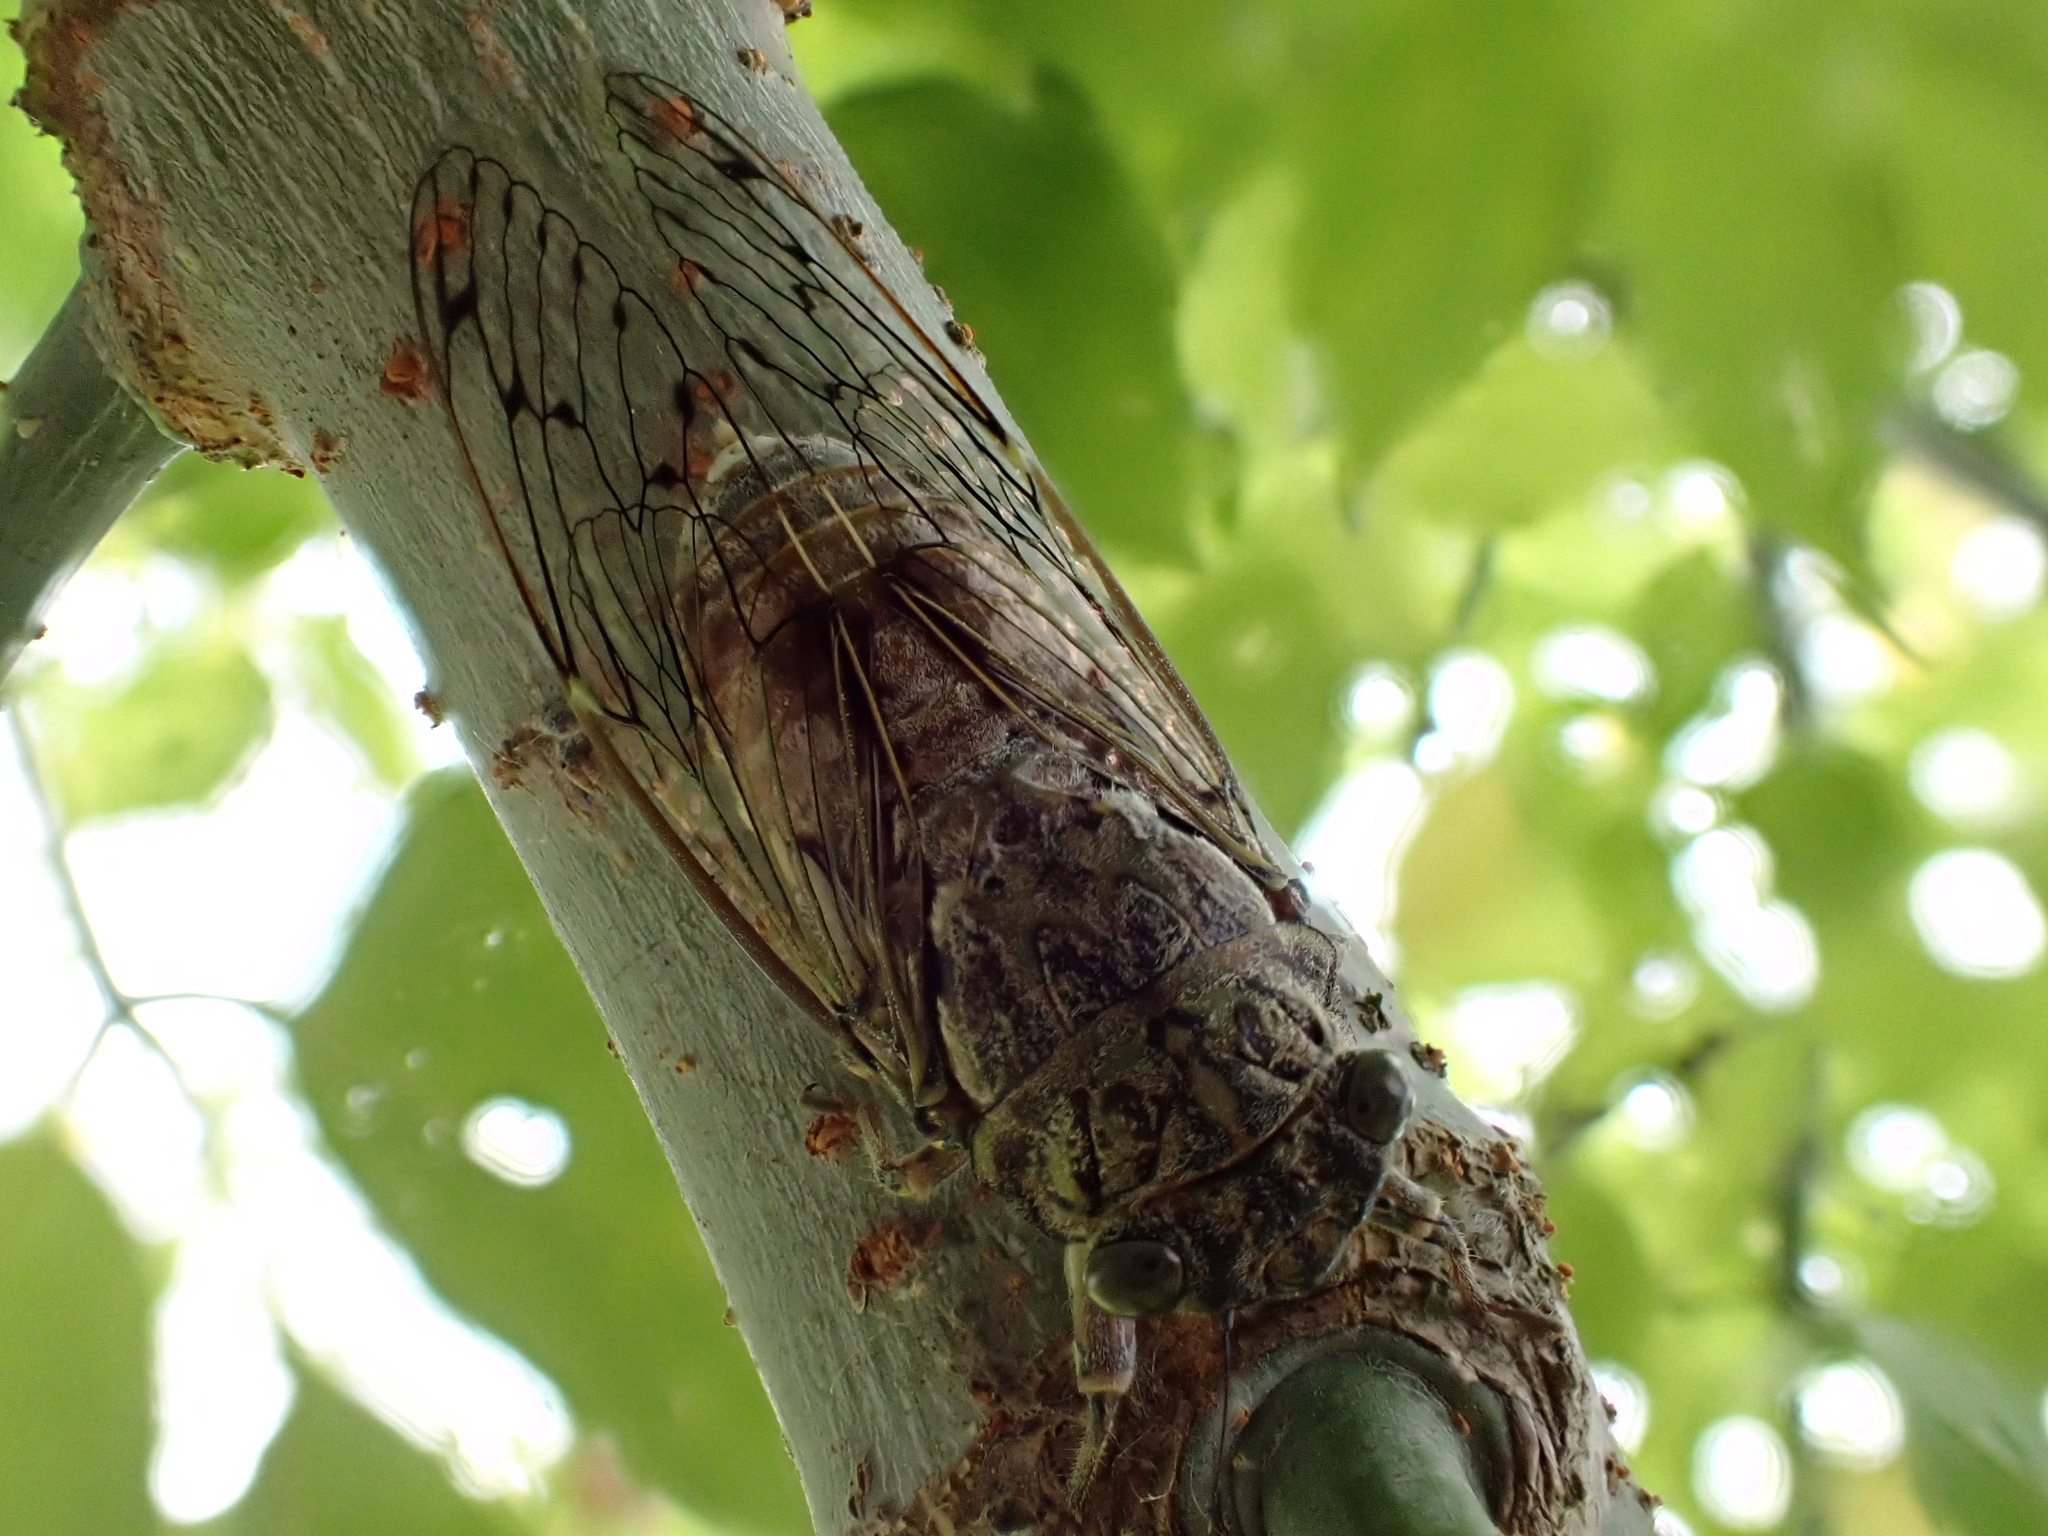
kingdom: Animalia
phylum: Arthropoda
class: Insecta
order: Hemiptera
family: Cicadidae
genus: Cicada
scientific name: Cicada orni
